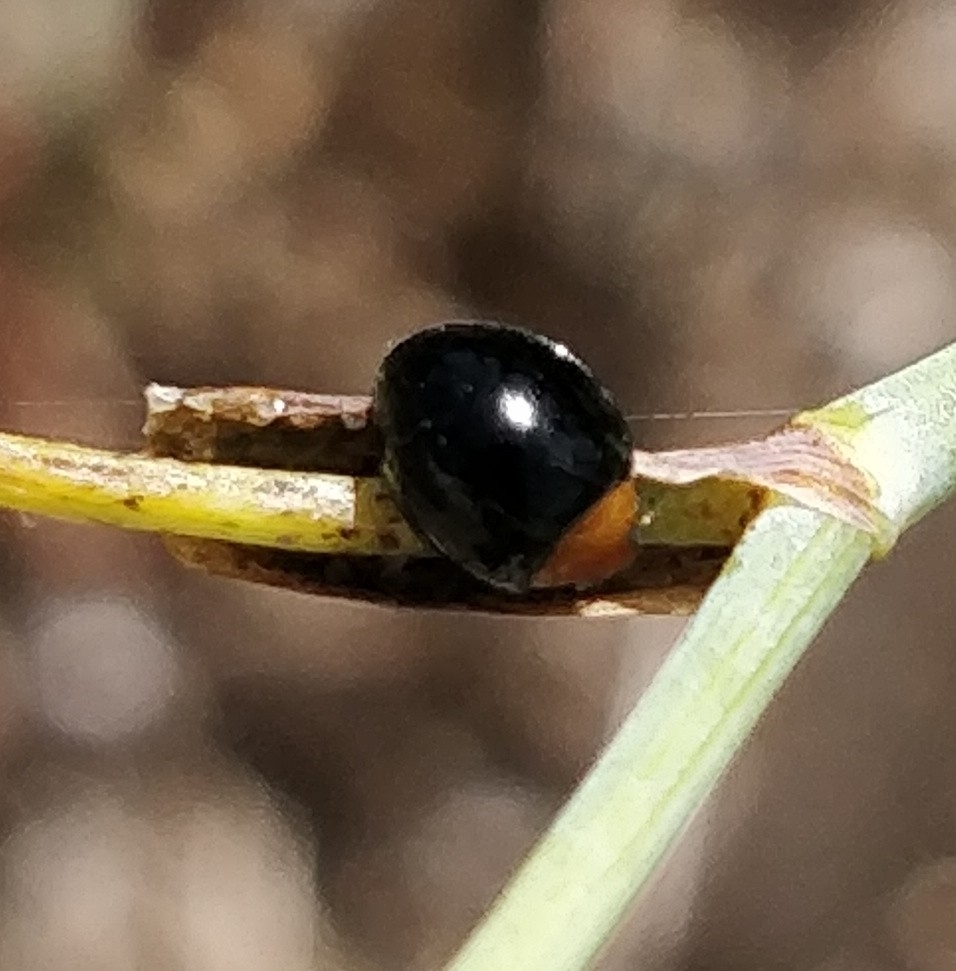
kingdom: Animalia
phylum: Arthropoda
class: Insecta
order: Coleoptera
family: Coccinellidae
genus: Exochomus
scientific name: Exochomus nigripennis
